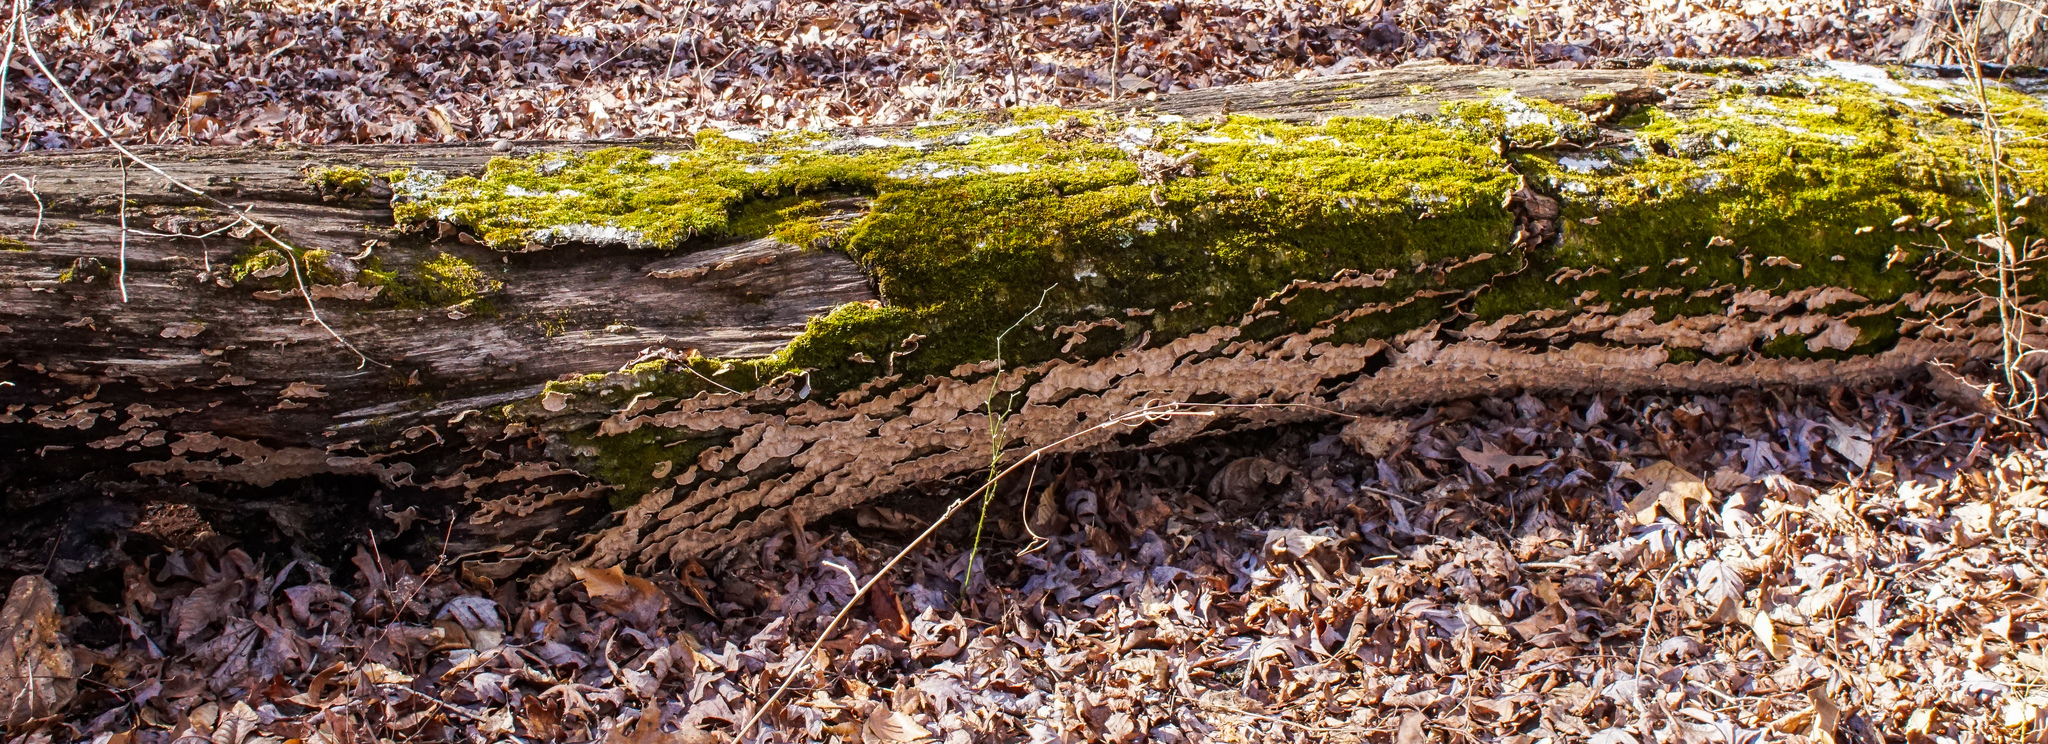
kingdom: Fungi
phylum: Basidiomycota
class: Agaricomycetes
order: Russulales
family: Stereaceae
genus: Xylobolus
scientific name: Xylobolus subpileatus
